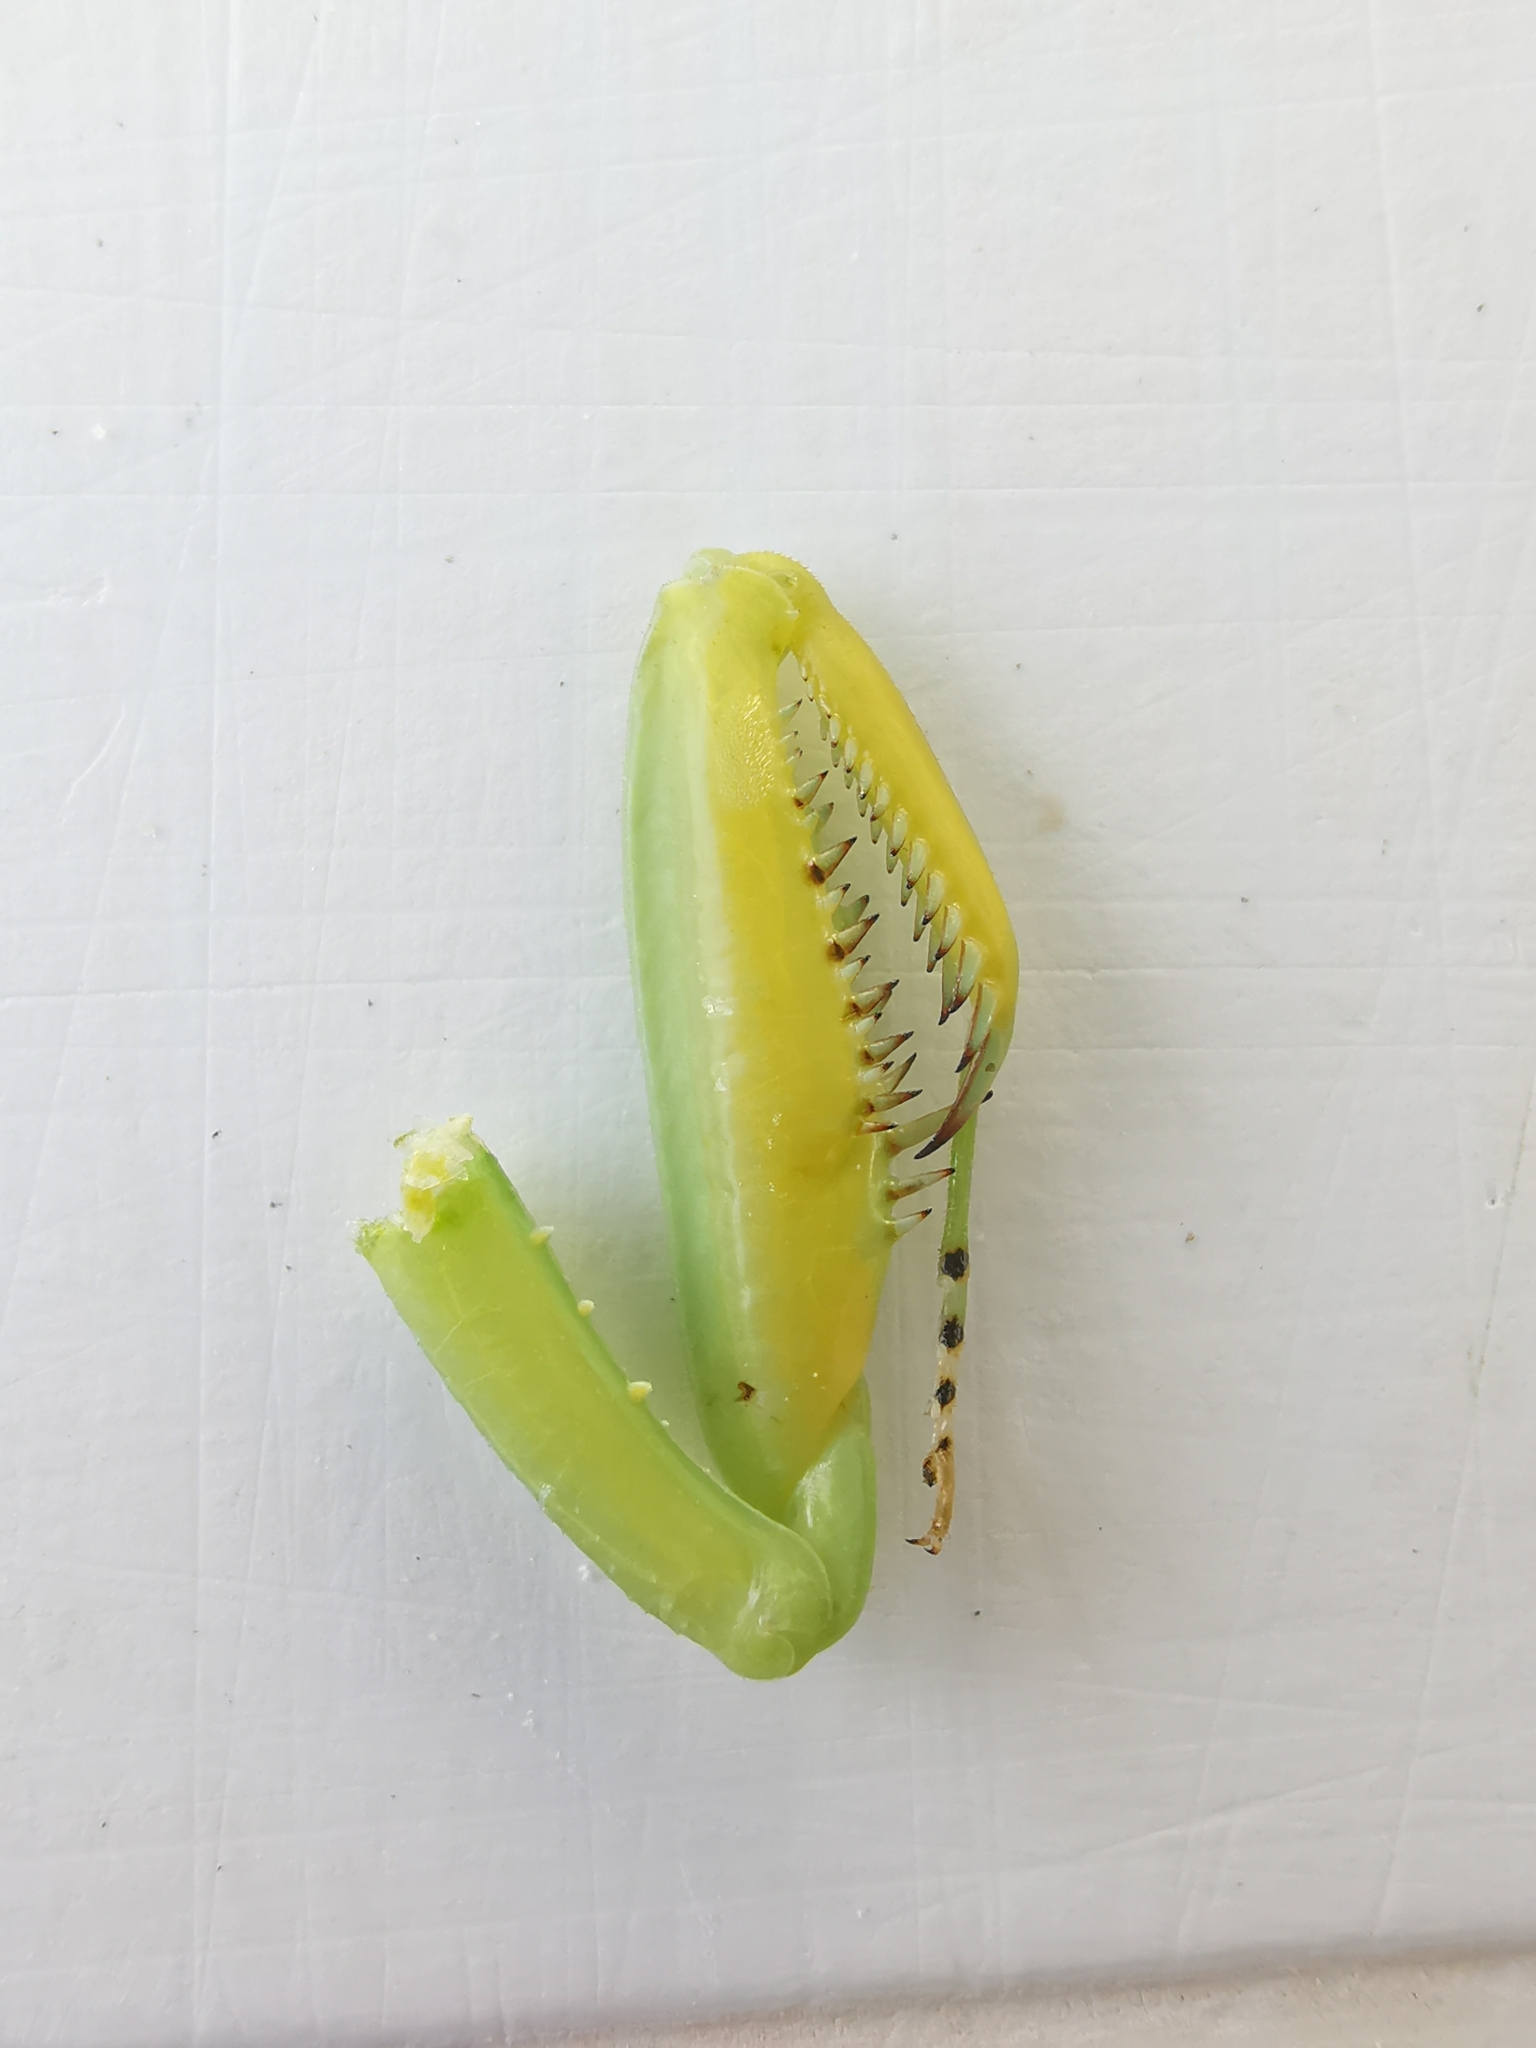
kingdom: Animalia
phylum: Arthropoda
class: Insecta
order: Mantodea
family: Mantidae
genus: Hierodula
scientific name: Hierodula transcaucasica
